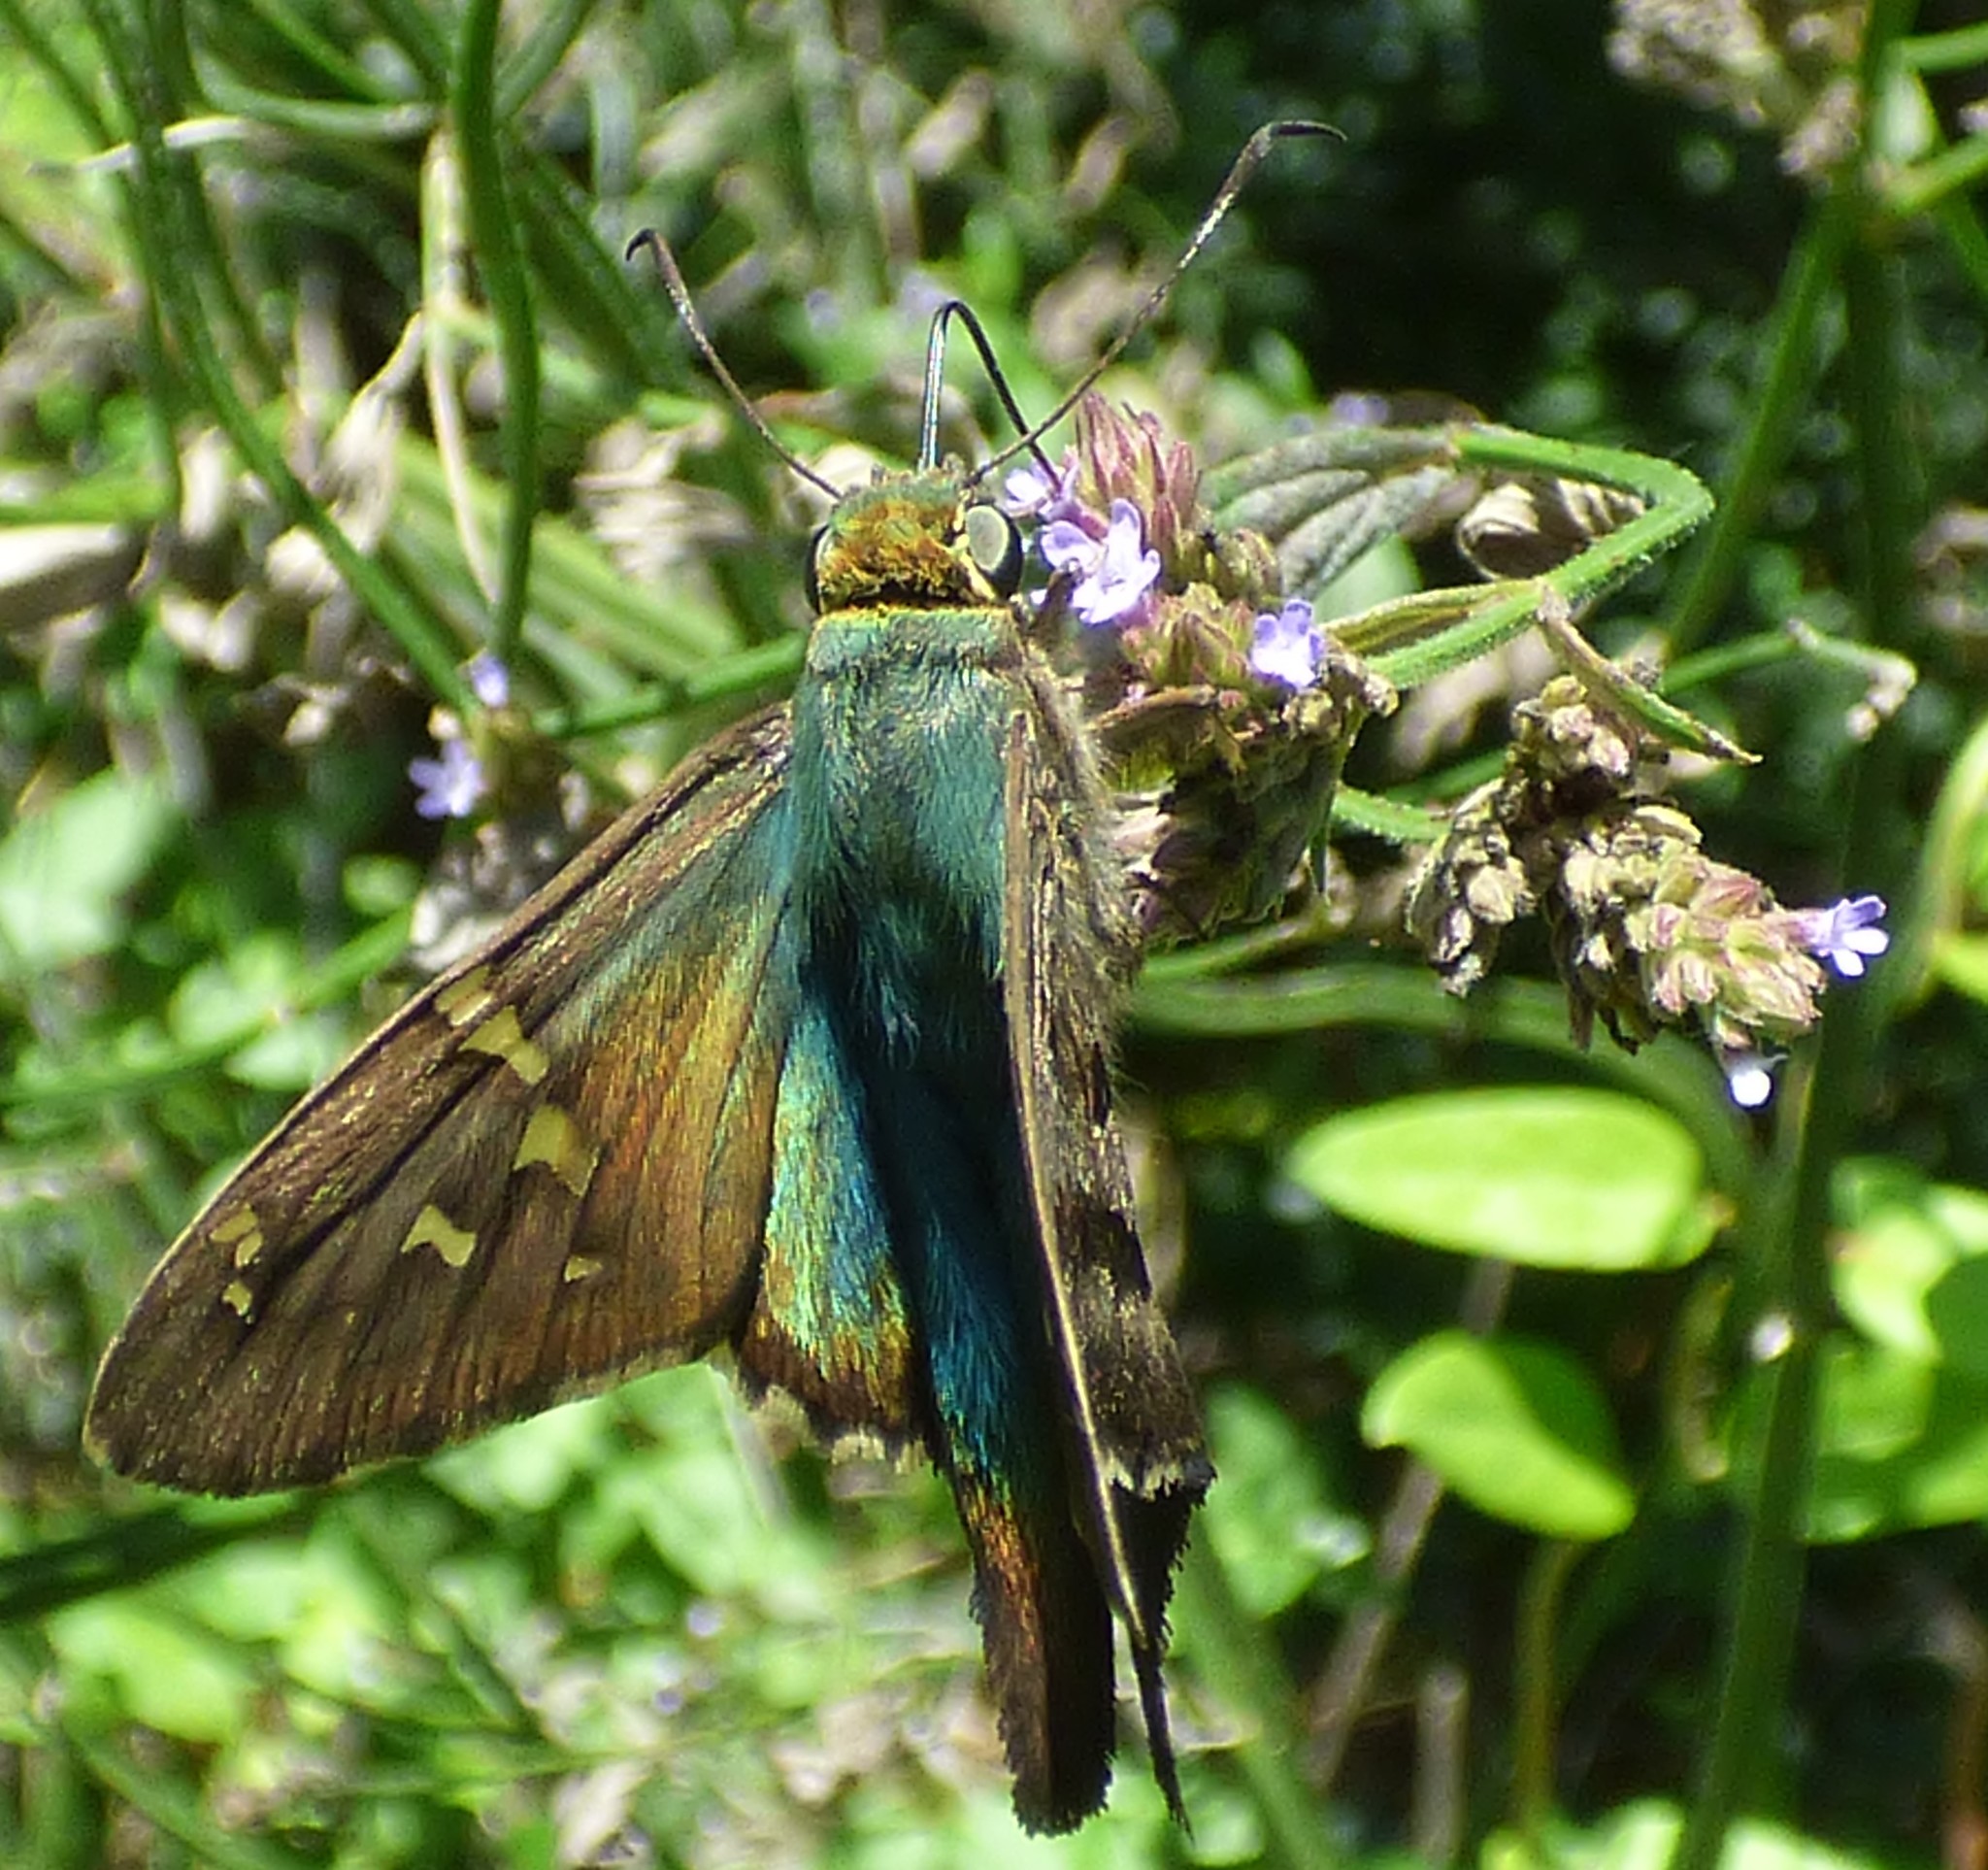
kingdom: Animalia
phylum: Arthropoda
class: Insecta
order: Lepidoptera
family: Hesperiidae
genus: Urbanus
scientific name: Urbanus proteus
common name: Long-tailed skipper
